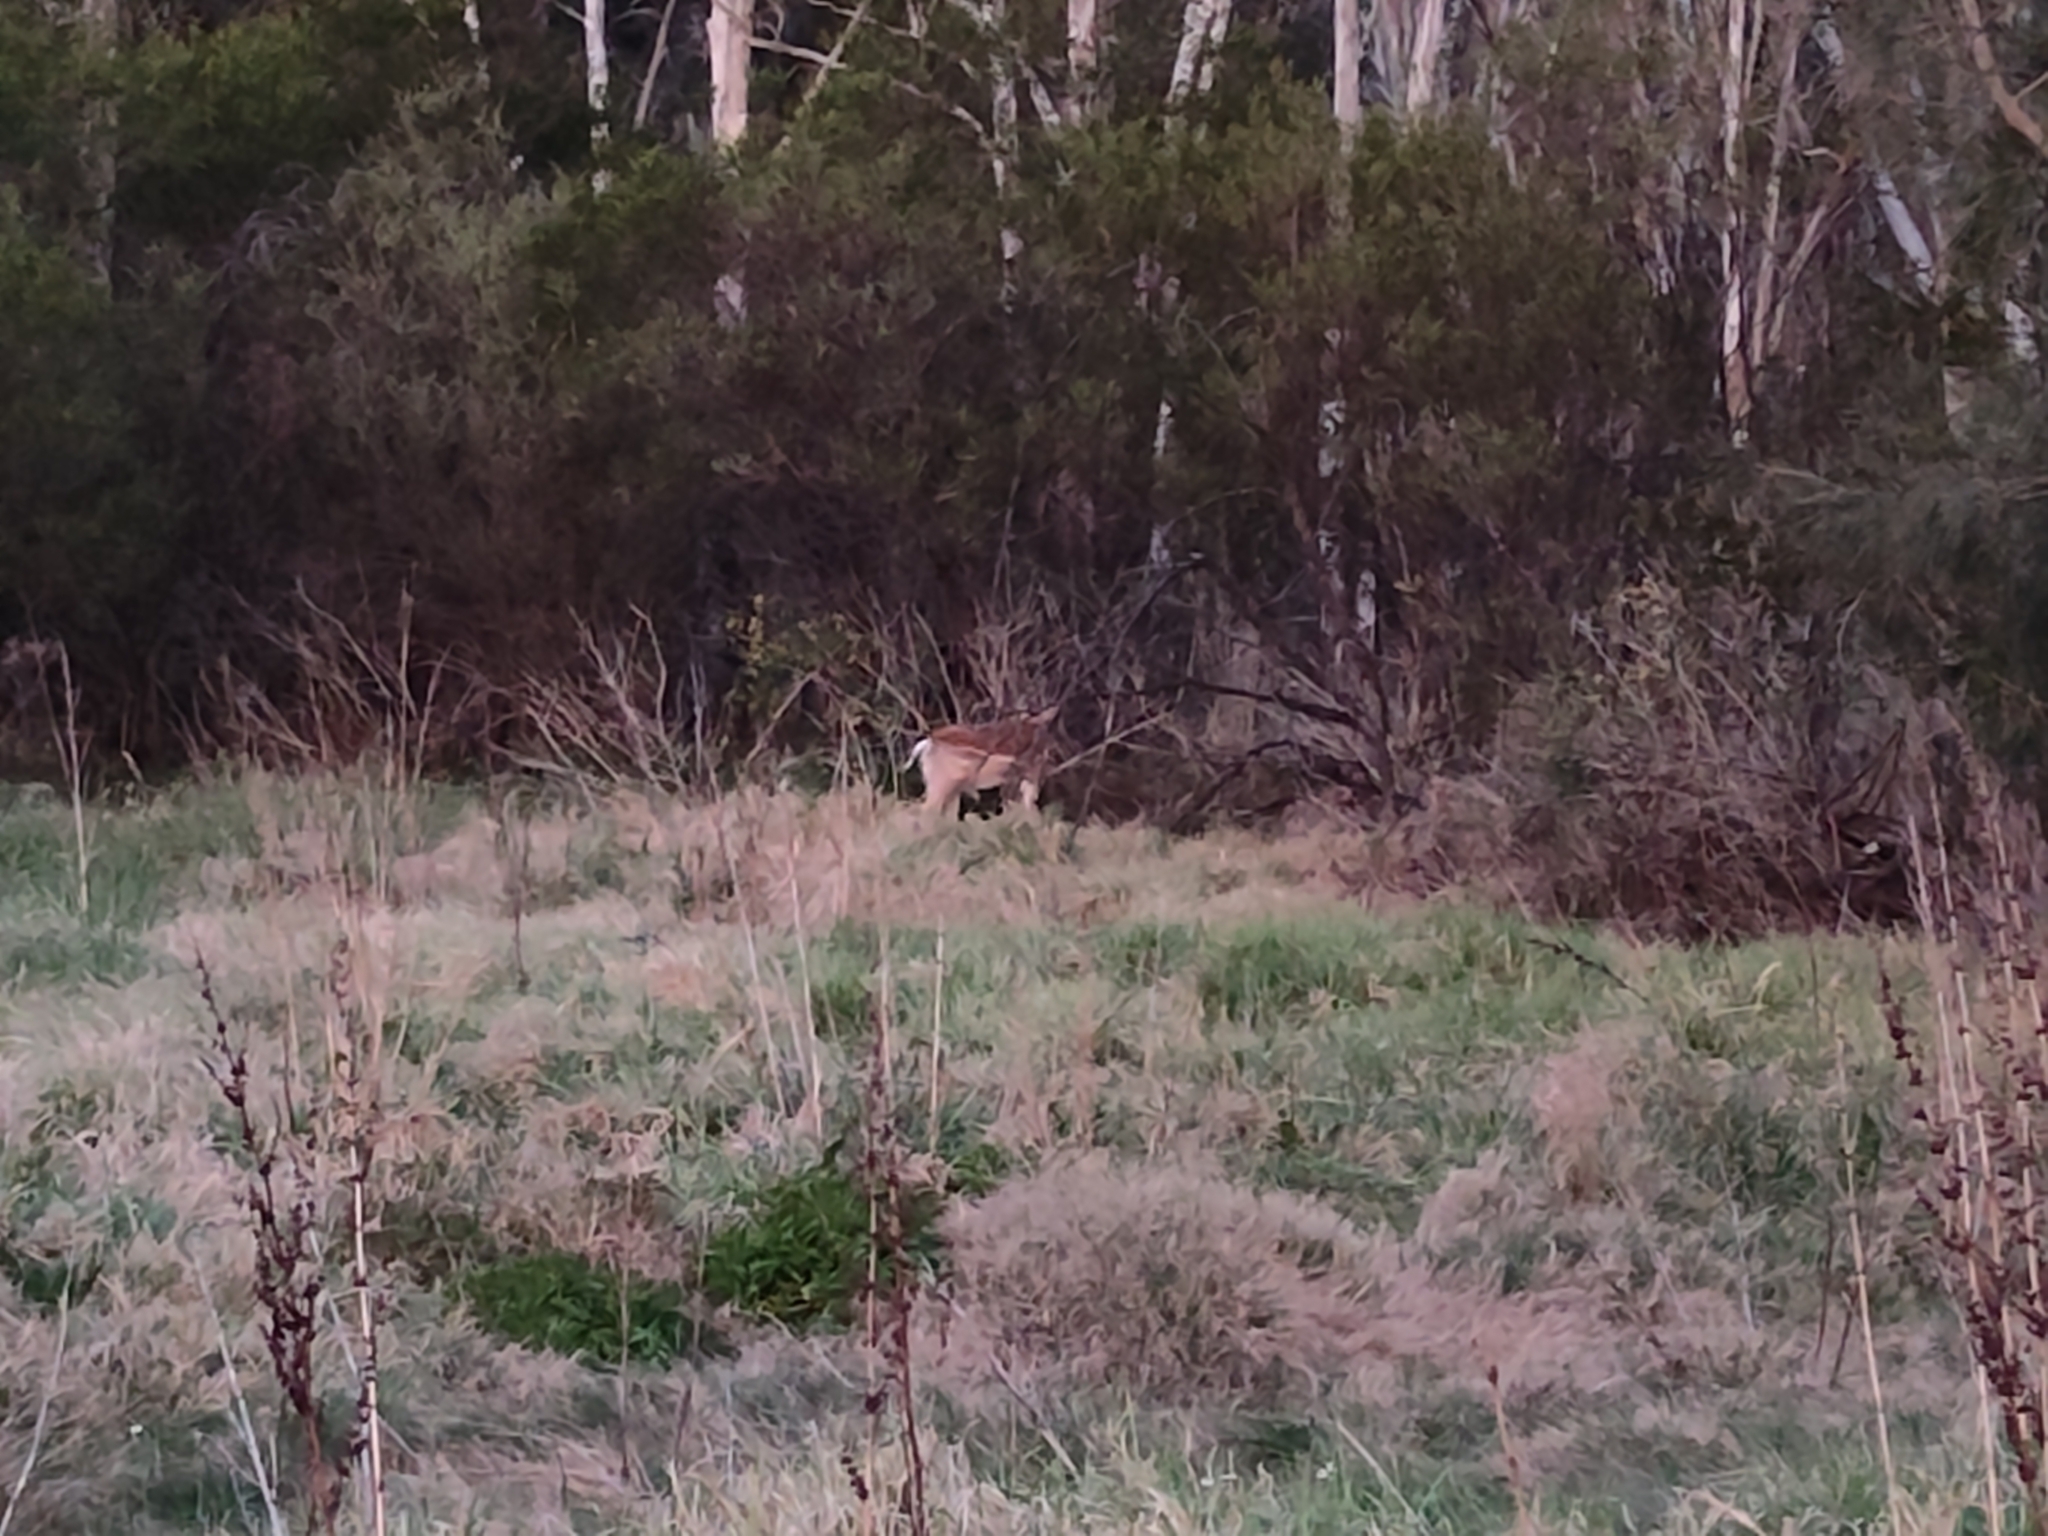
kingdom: Animalia
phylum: Chordata
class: Mammalia
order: Artiodactyla
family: Cervidae
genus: Dama
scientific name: Dama dama
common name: Fallow deer
